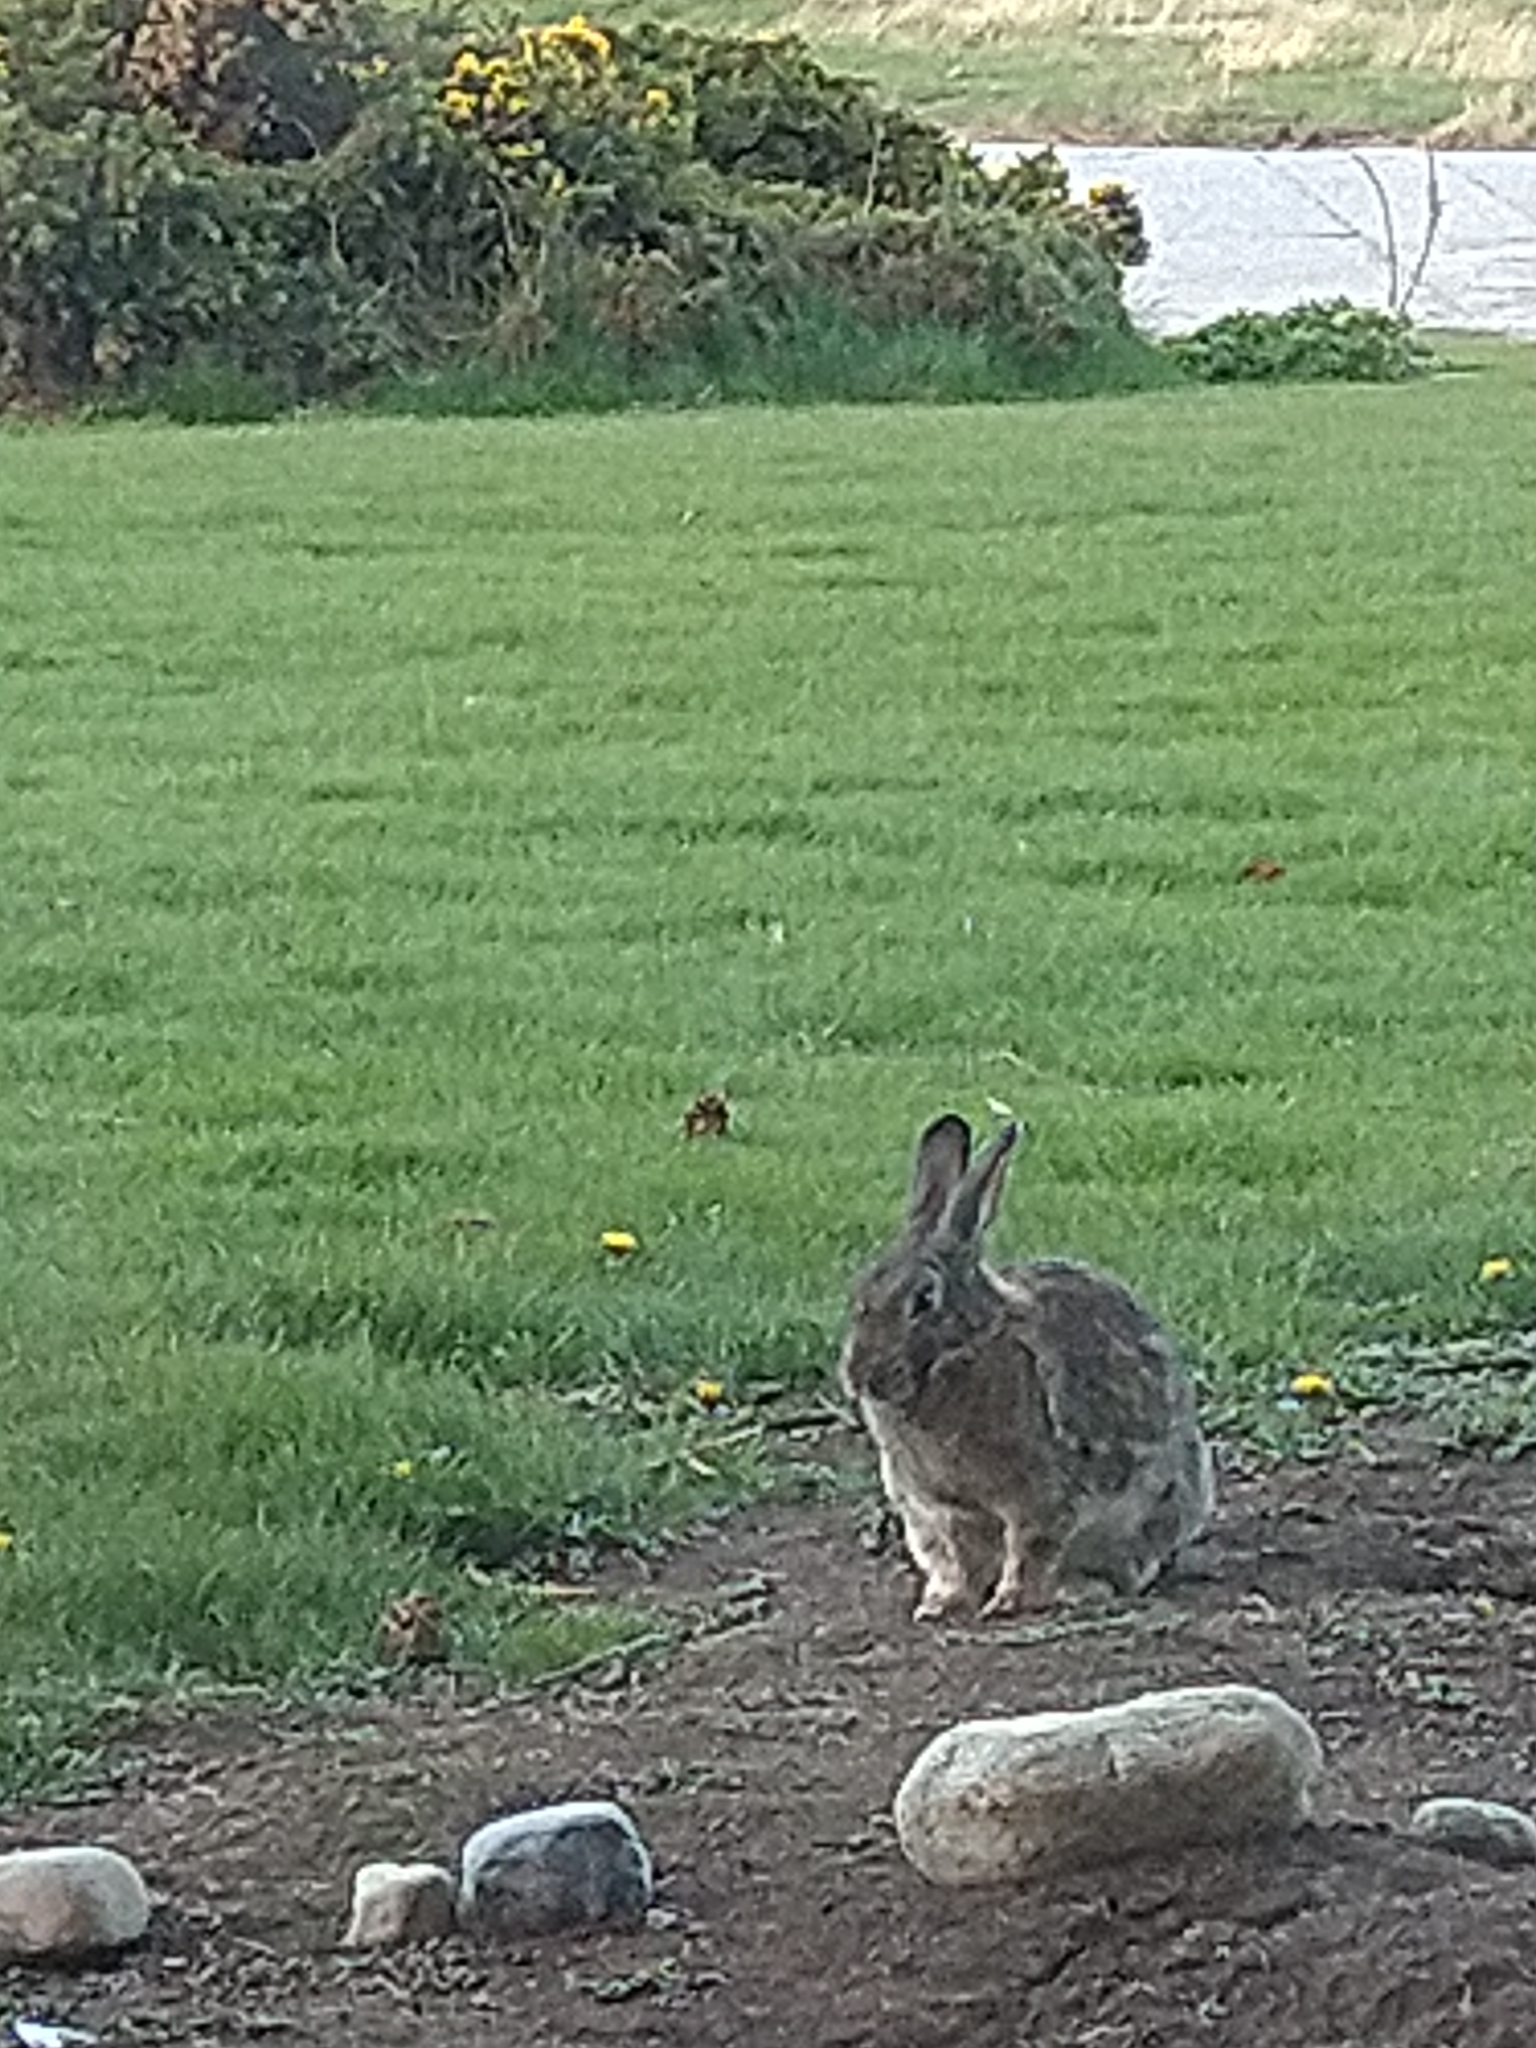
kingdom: Animalia
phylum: Chordata
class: Mammalia
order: Lagomorpha
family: Leporidae
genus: Oryctolagus
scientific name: Oryctolagus cuniculus
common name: European rabbit
